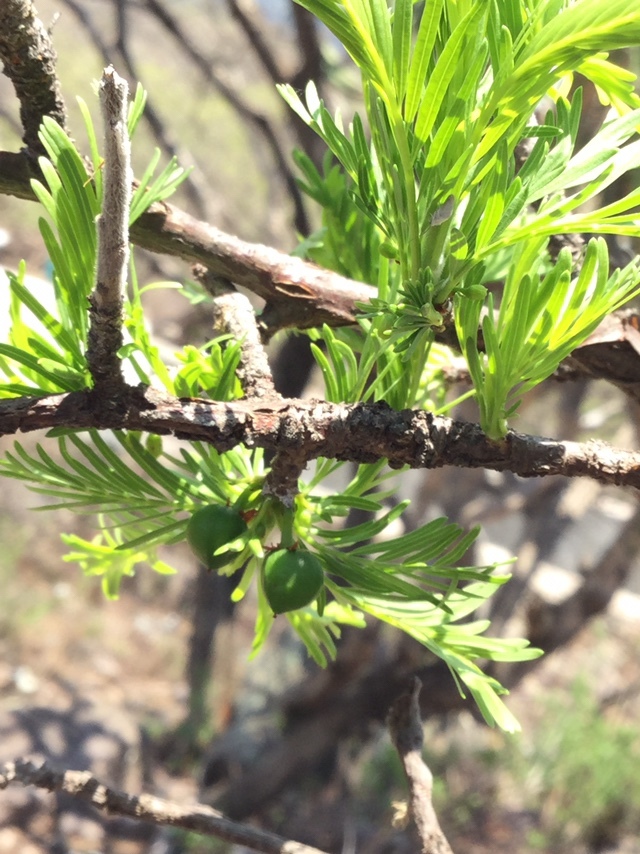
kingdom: Plantae
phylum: Tracheophyta
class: Magnoliopsida
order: Sapindales
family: Burseraceae
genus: Bursera
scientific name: Bursera galeottiana
